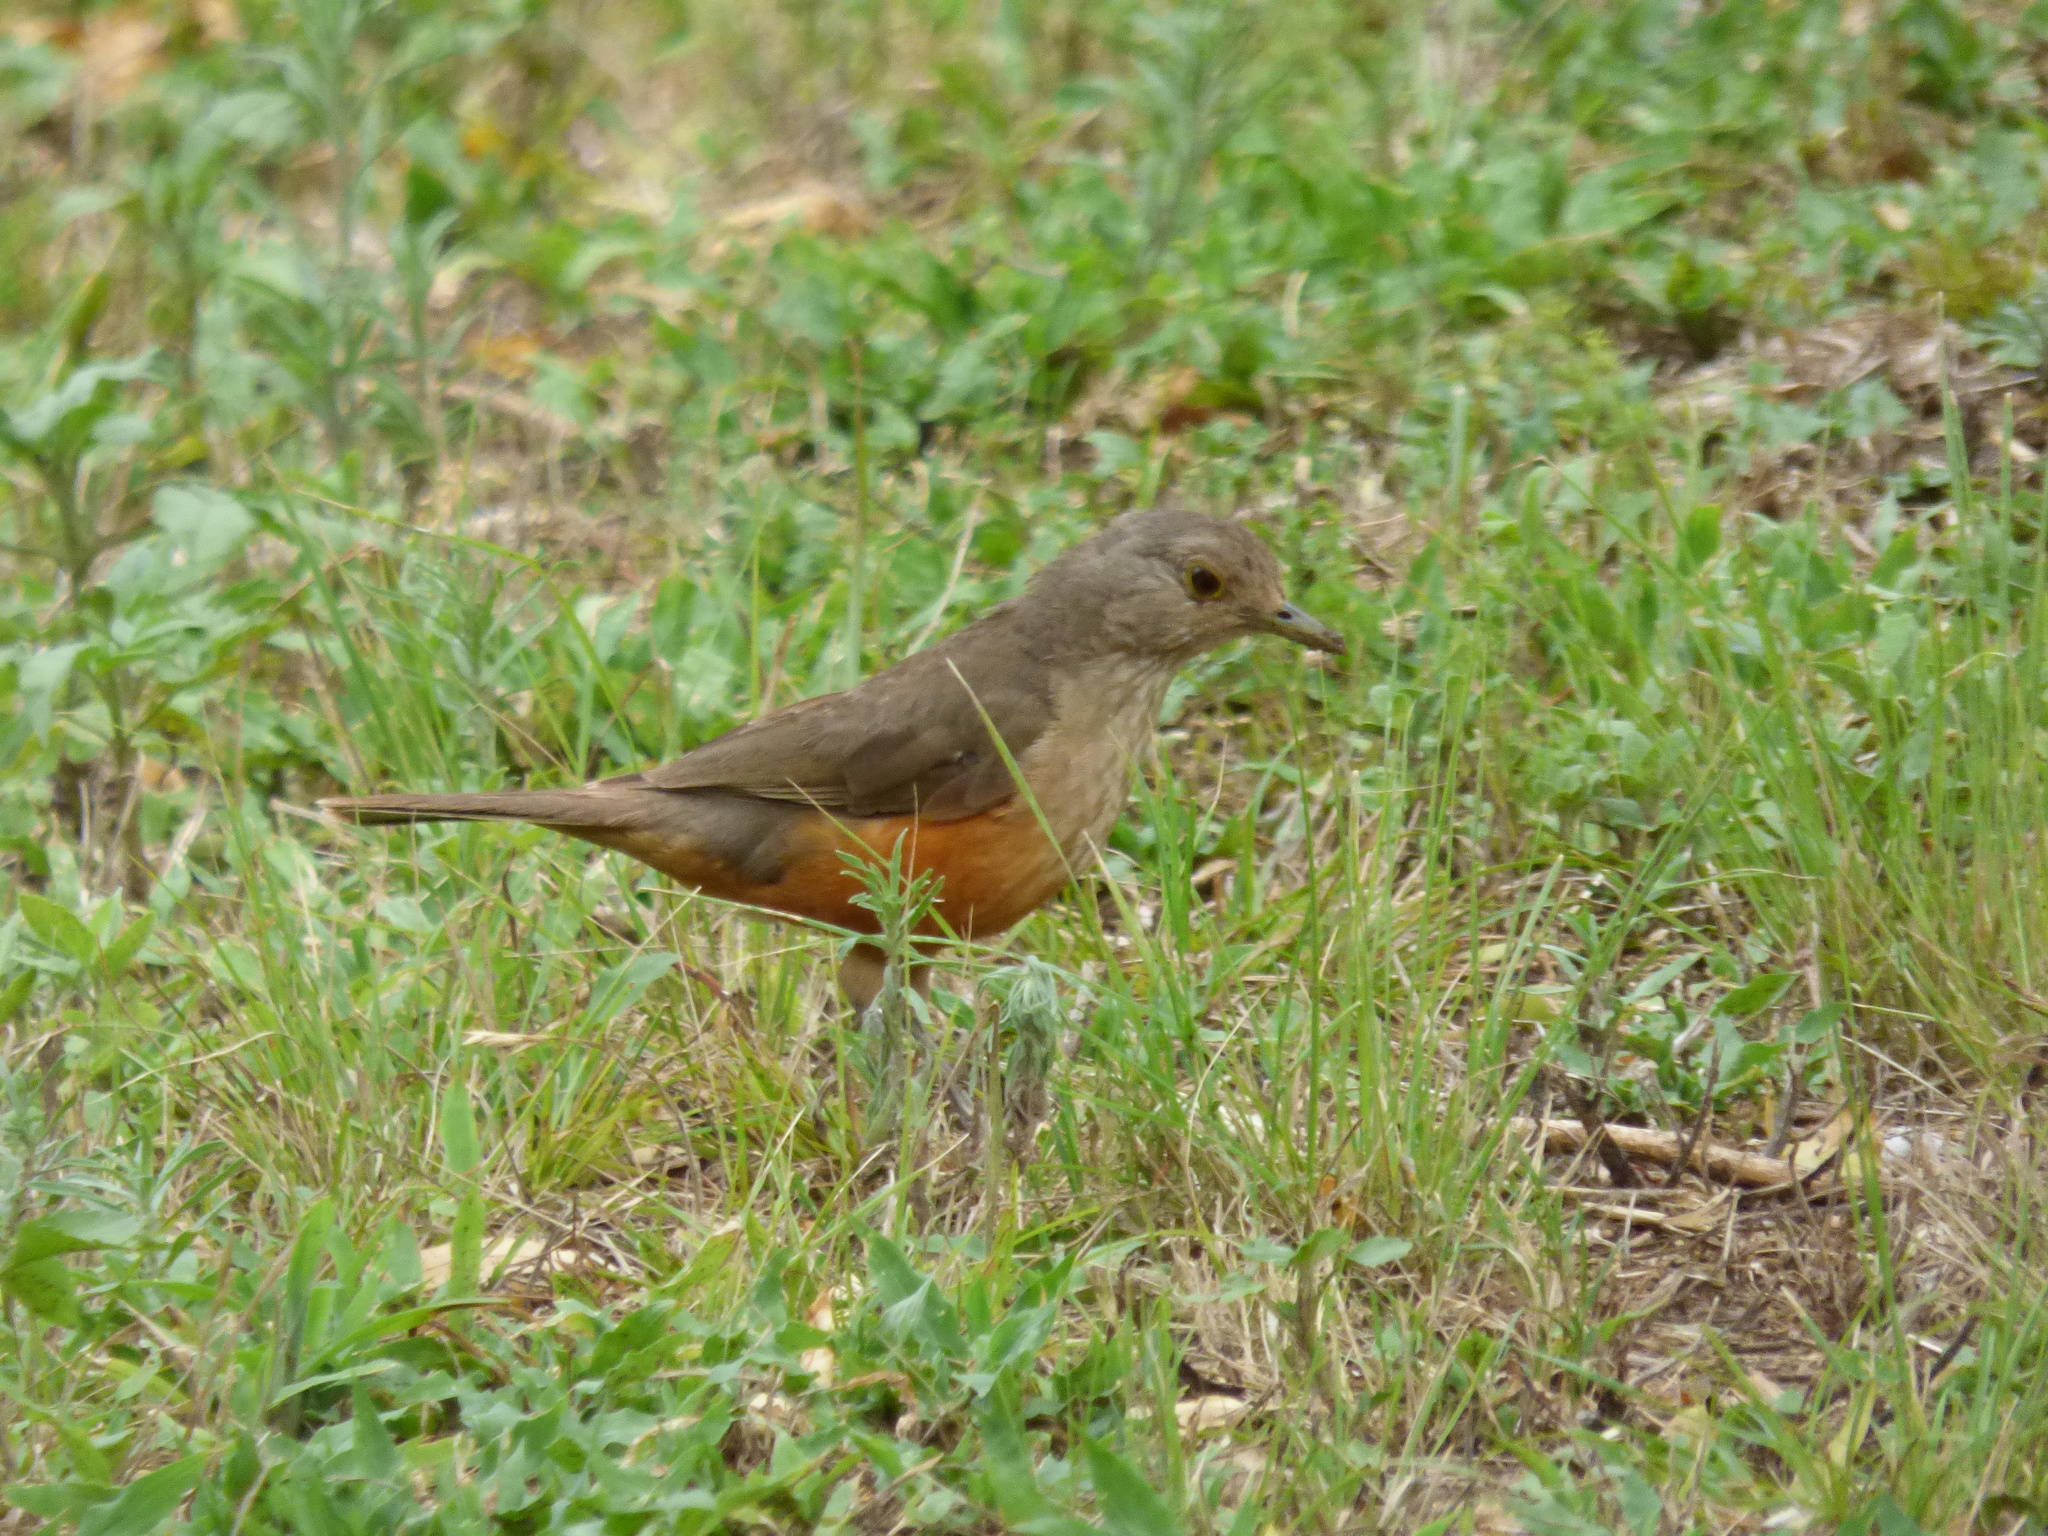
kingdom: Animalia
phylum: Chordata
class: Aves
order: Passeriformes
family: Turdidae
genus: Turdus
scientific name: Turdus rufiventris
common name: Rufous-bellied thrush
